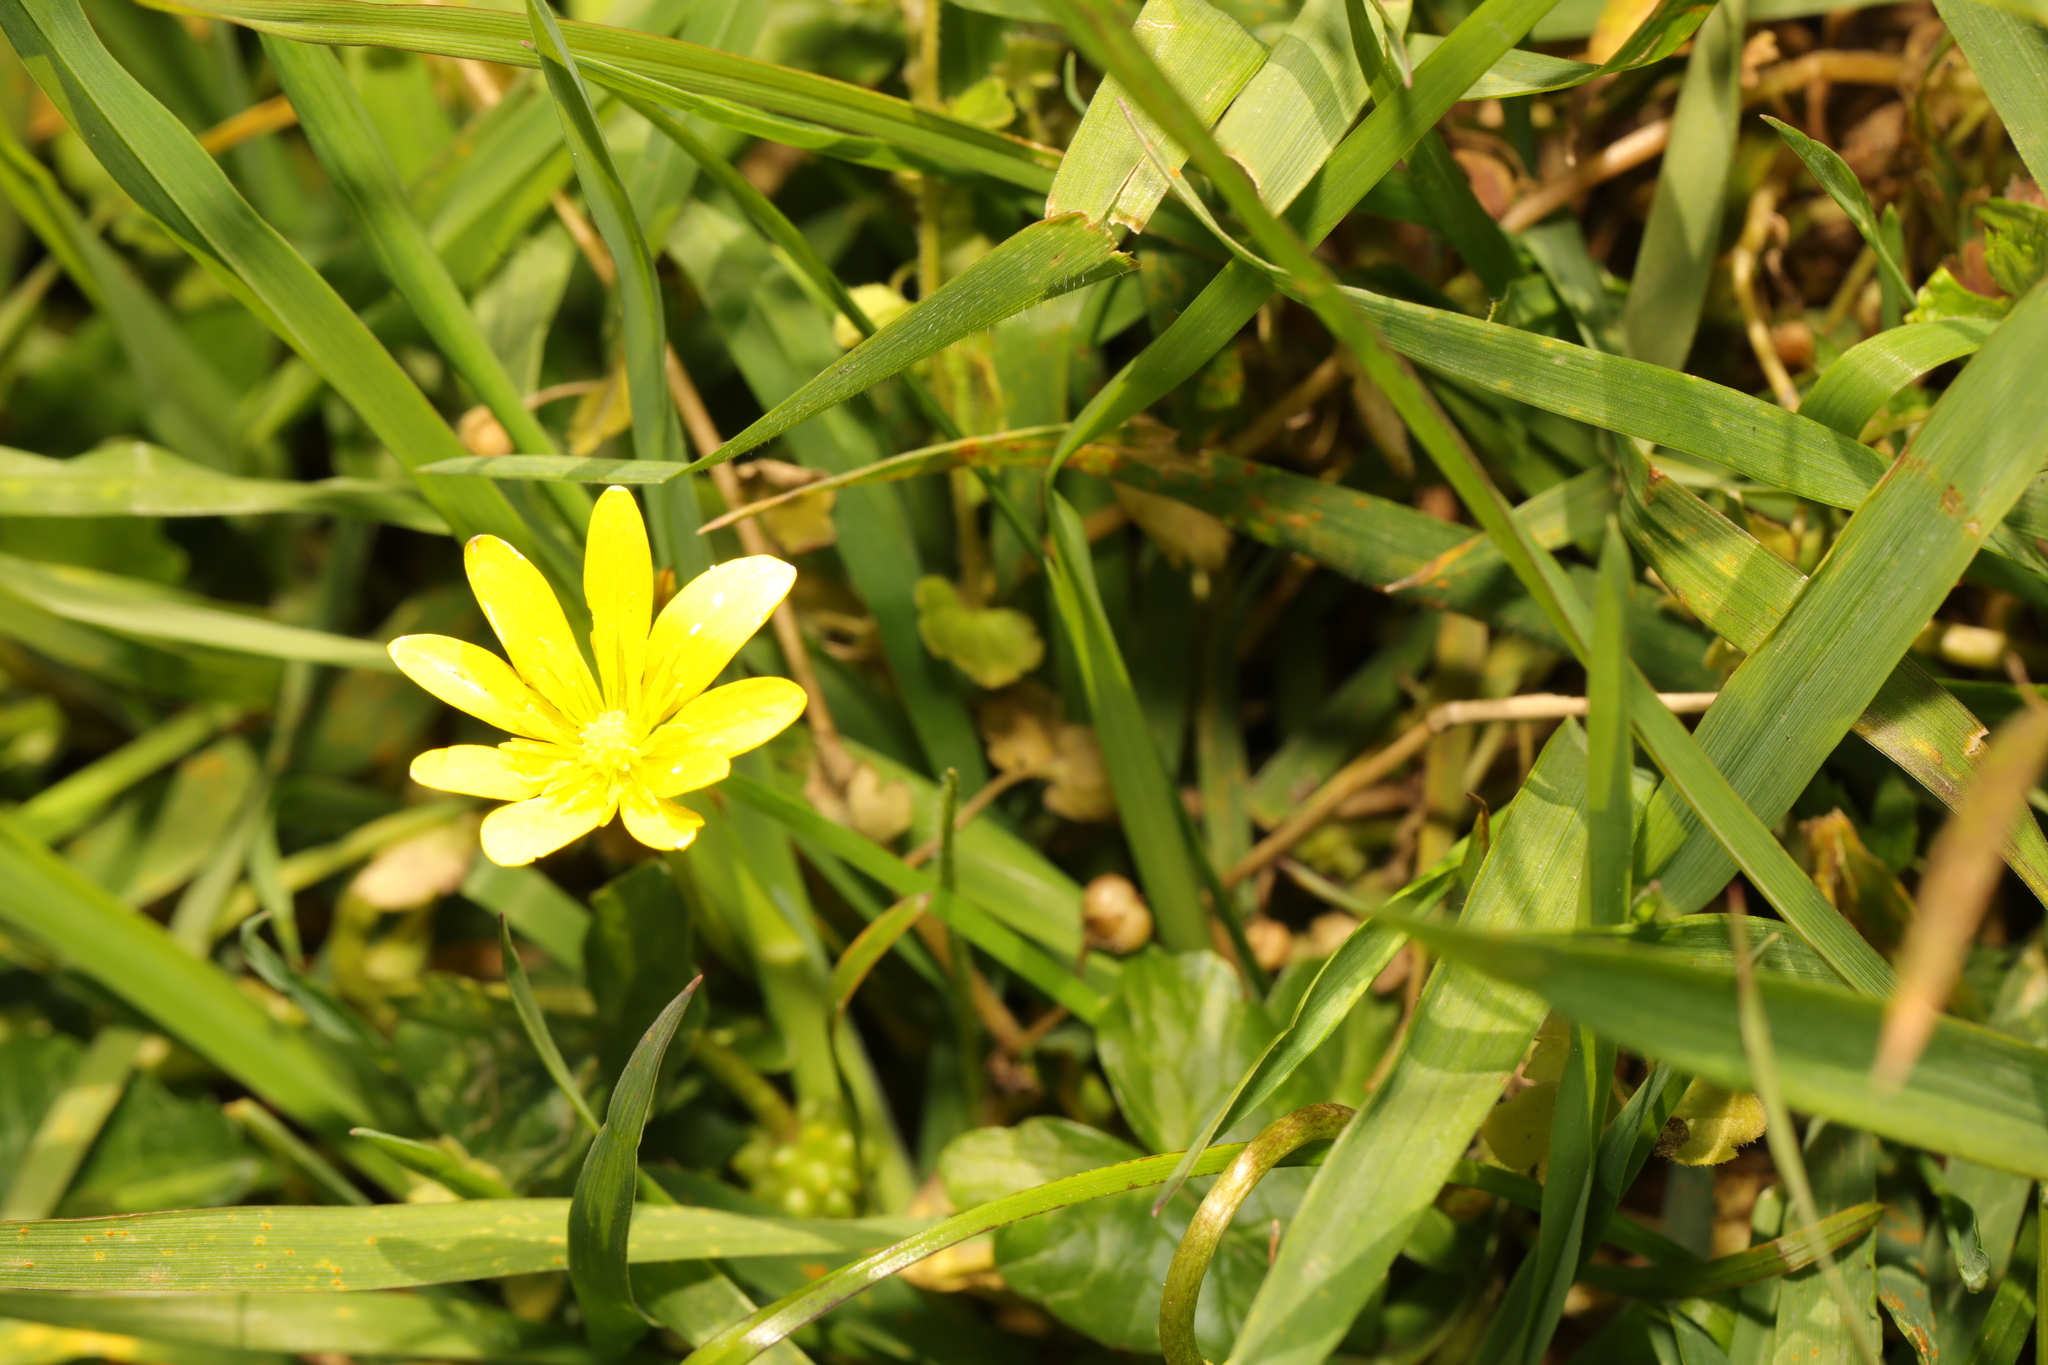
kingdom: Plantae
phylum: Tracheophyta
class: Magnoliopsida
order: Ranunculales
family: Ranunculaceae
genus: Ficaria
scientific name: Ficaria verna
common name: Lesser celandine
